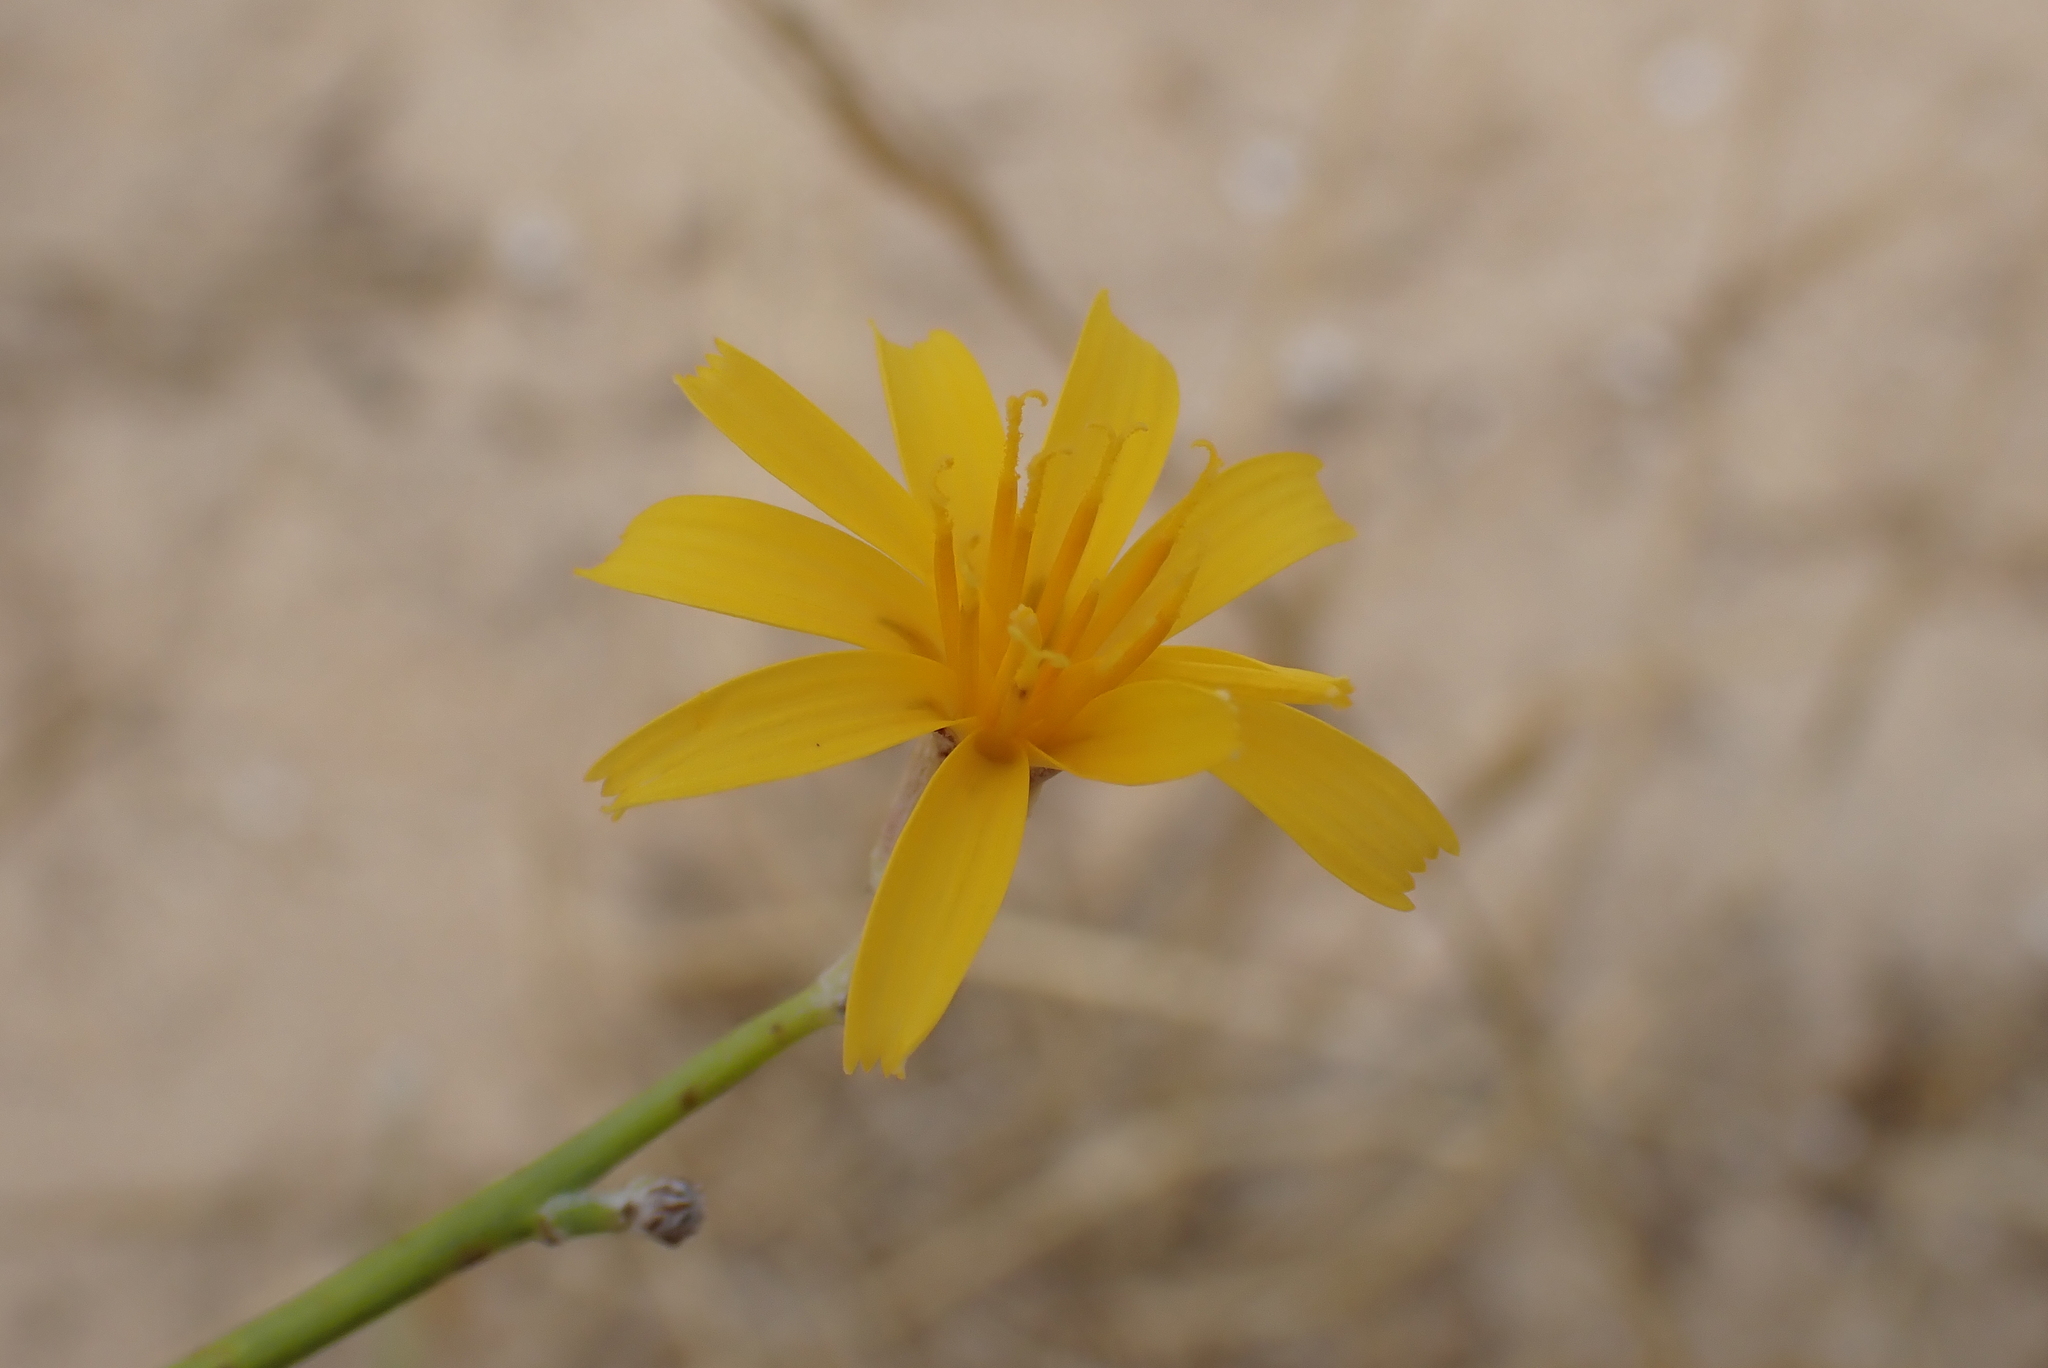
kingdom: Plantae
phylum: Tracheophyta
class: Magnoliopsida
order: Asterales
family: Asteraceae
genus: Chondrilla
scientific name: Chondrilla juncea
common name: Skeleton weed
